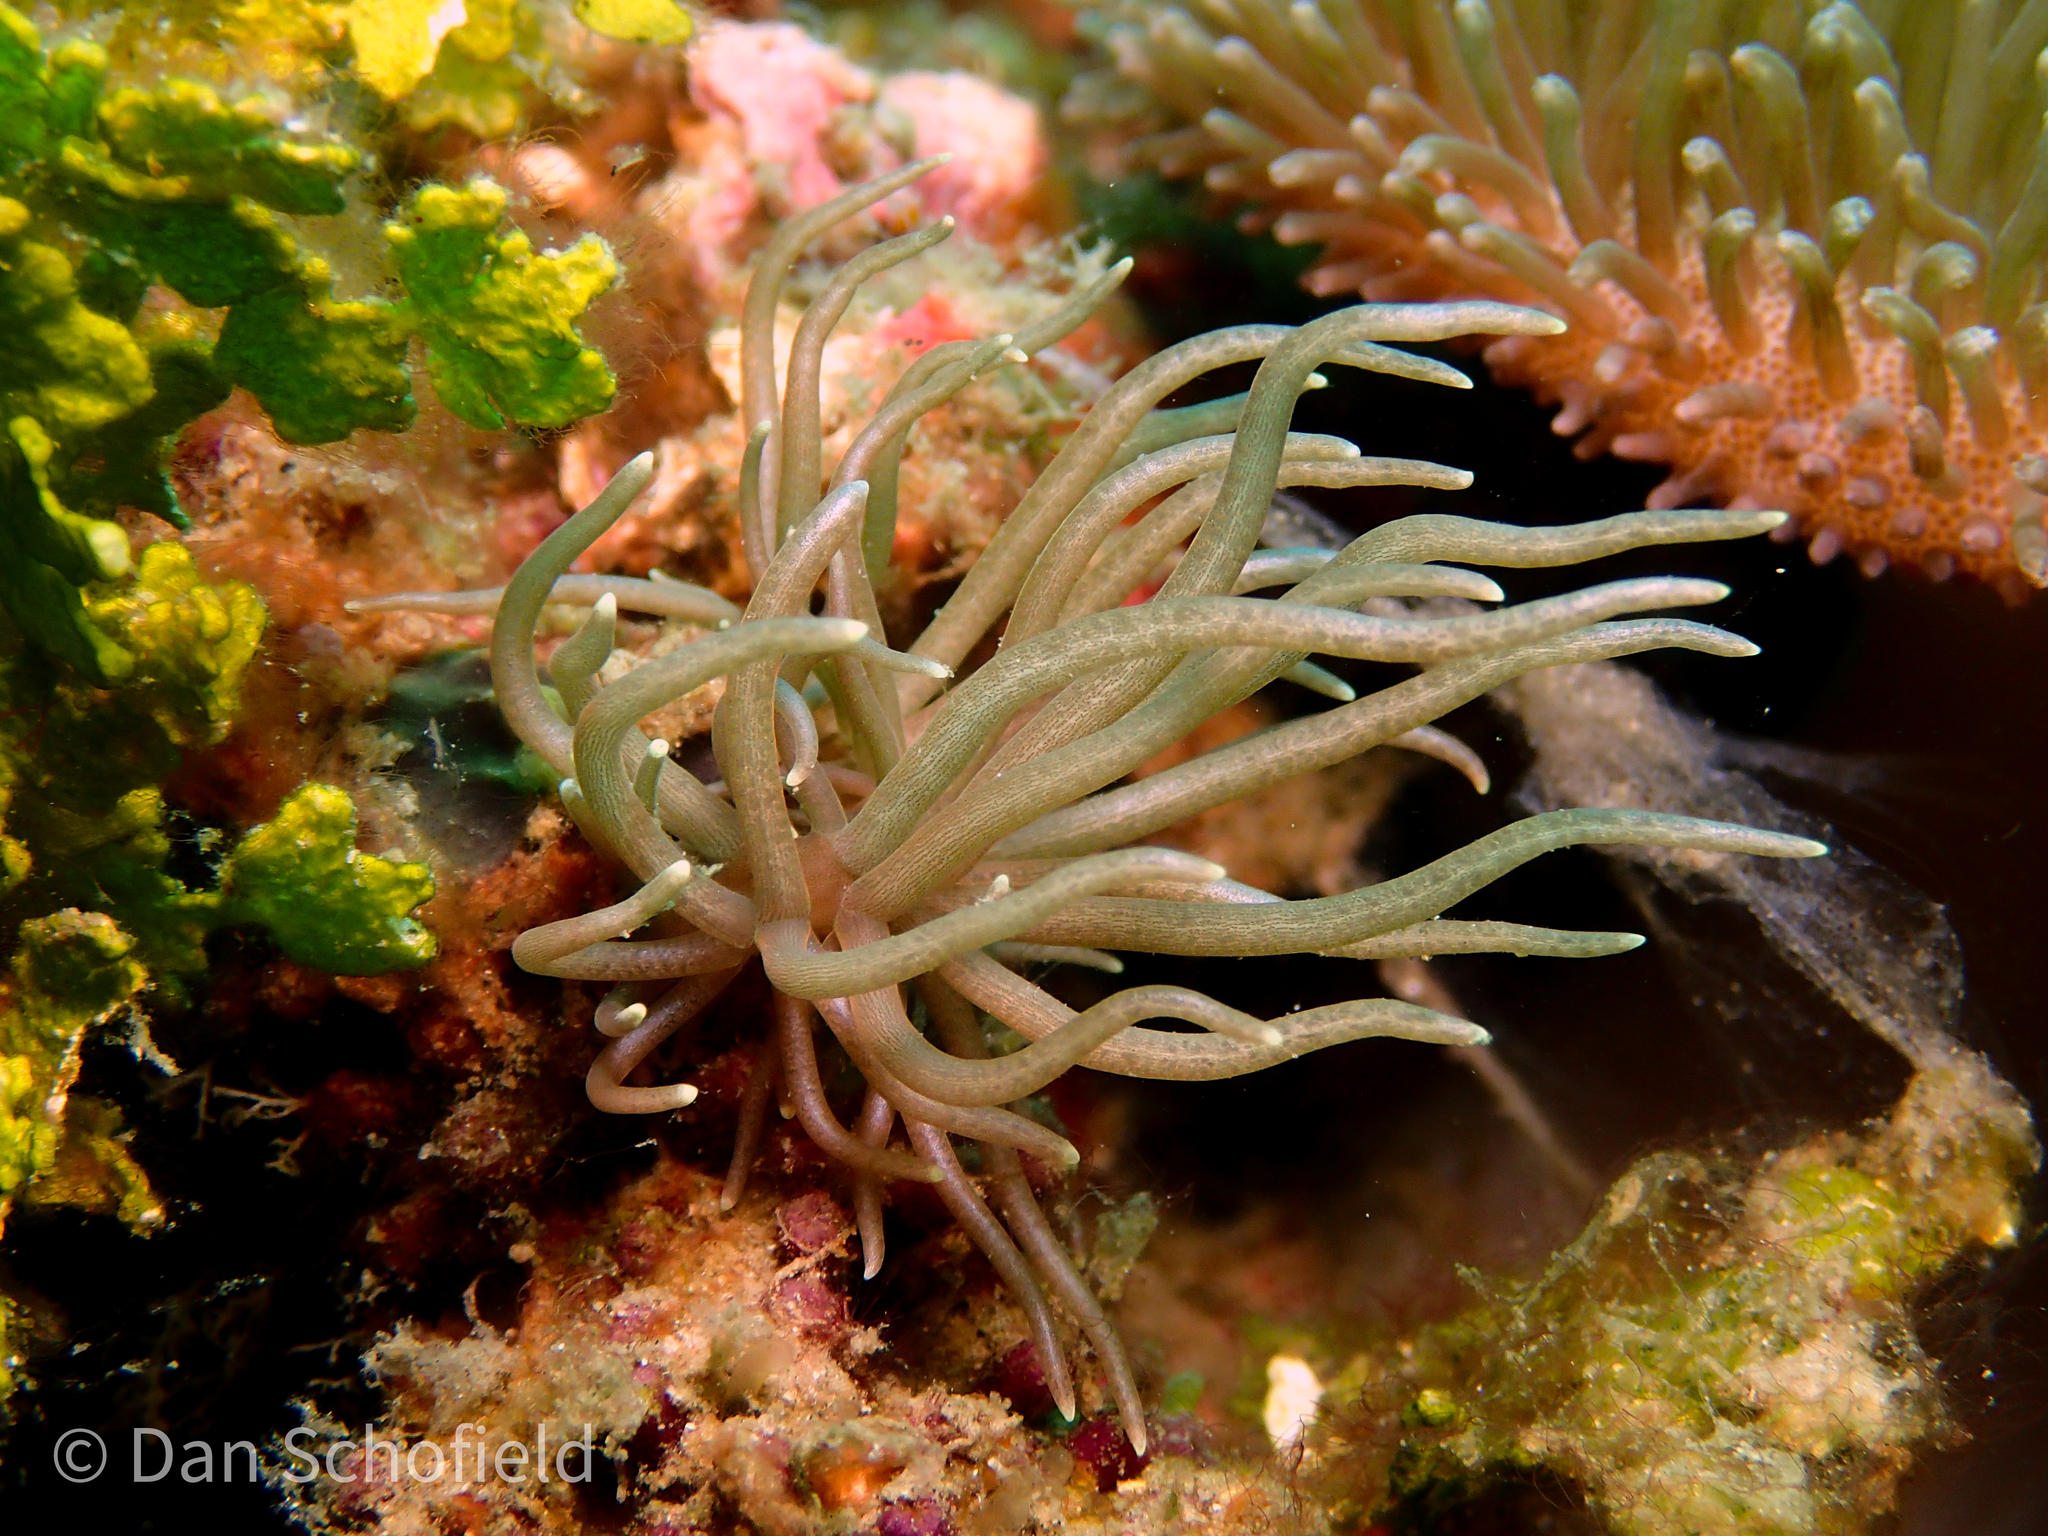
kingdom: Animalia
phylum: Mollusca
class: Gastropoda
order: Nudibranchia
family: Myrrhinidae
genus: Phyllodesmium
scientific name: Phyllodesmium briareum
